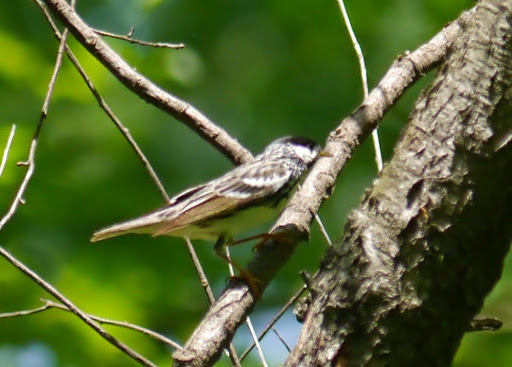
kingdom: Animalia
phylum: Chordata
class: Aves
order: Passeriformes
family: Parulidae
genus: Setophaga
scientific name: Setophaga striata
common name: Blackpoll warbler
